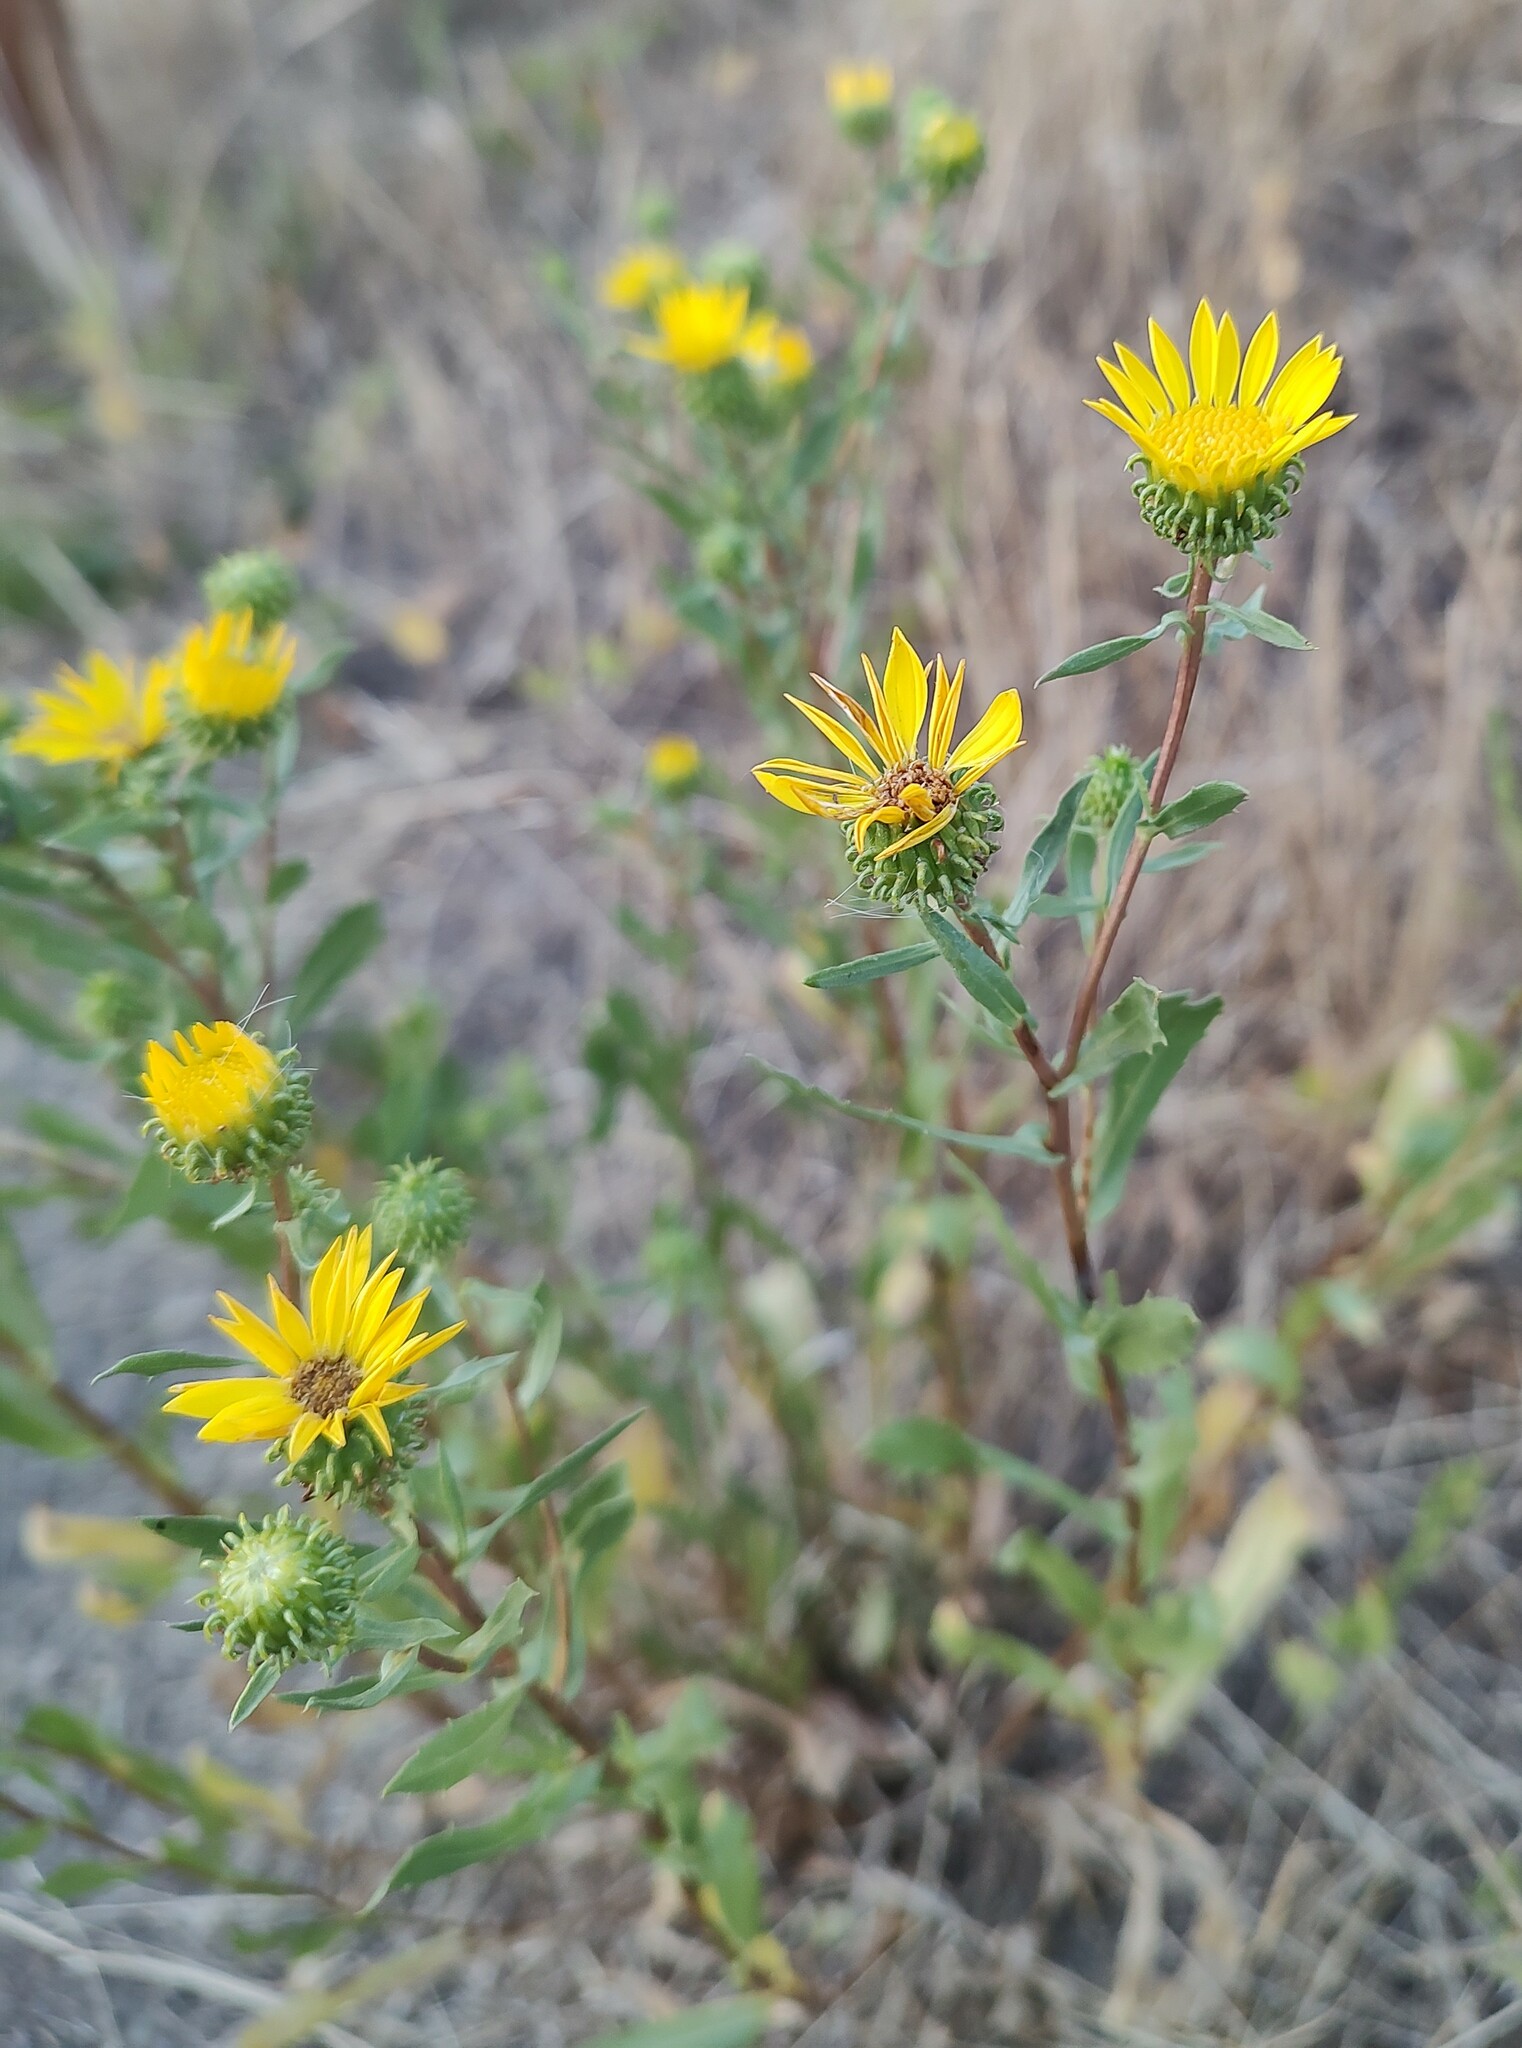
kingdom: Plantae
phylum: Tracheophyta
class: Magnoliopsida
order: Asterales
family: Asteraceae
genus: Grindelia
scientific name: Grindelia hirsutula
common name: Hairy gumweed
